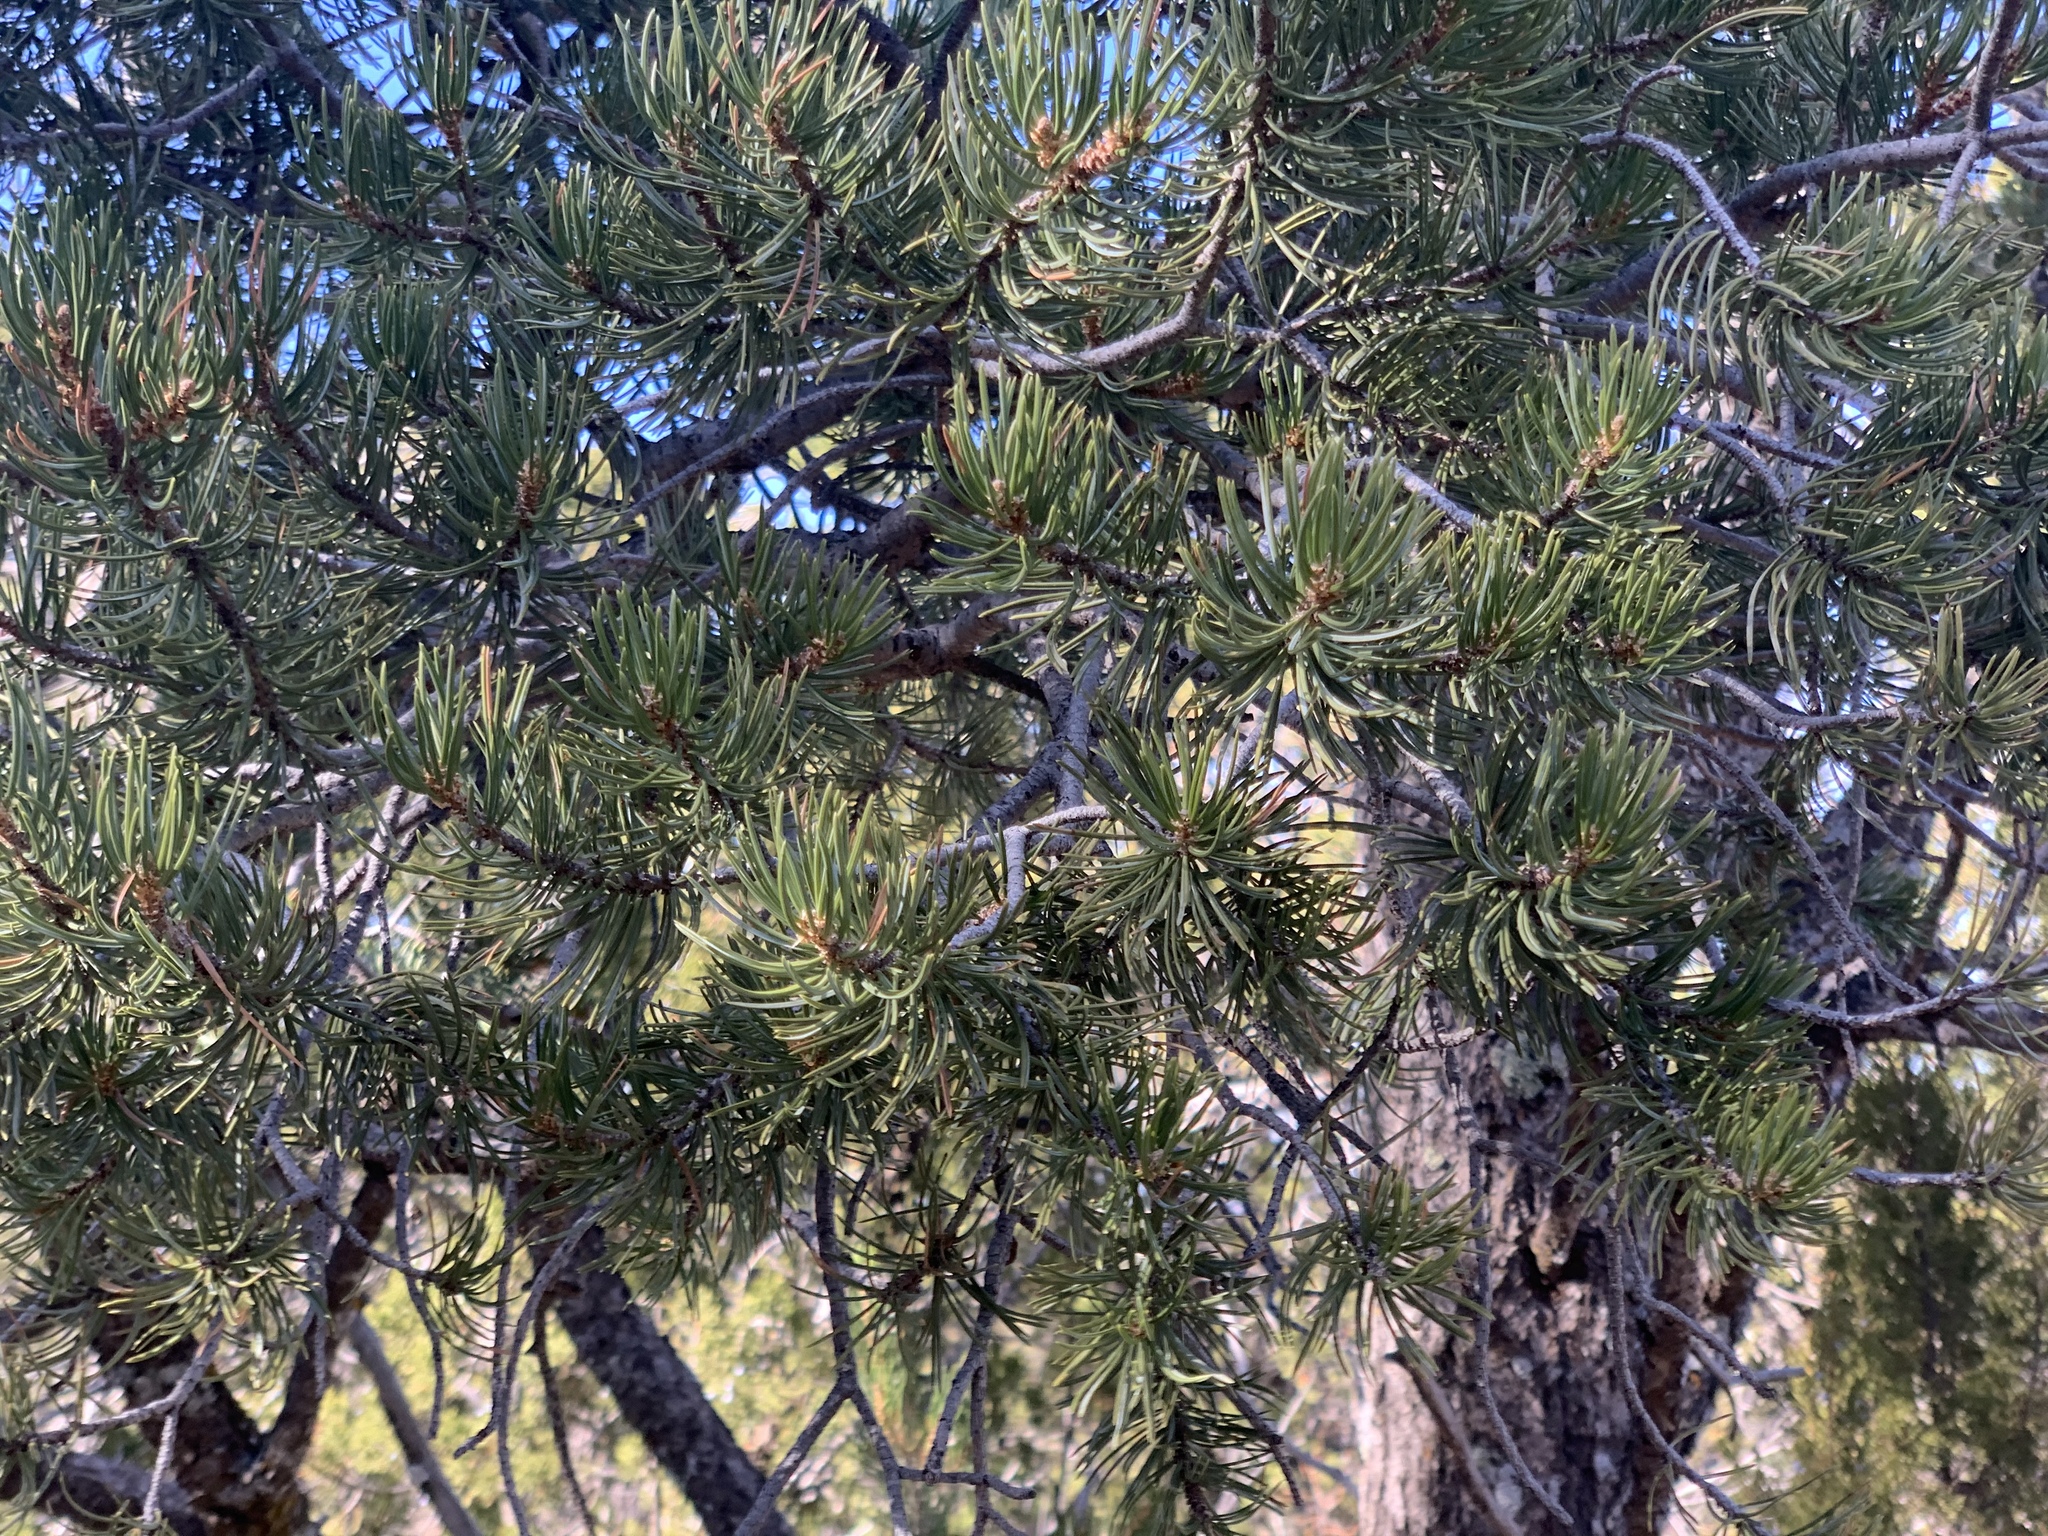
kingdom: Plantae
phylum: Tracheophyta
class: Pinopsida
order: Pinales
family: Pinaceae
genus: Pinus
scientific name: Pinus edulis
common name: Colorado pinyon
